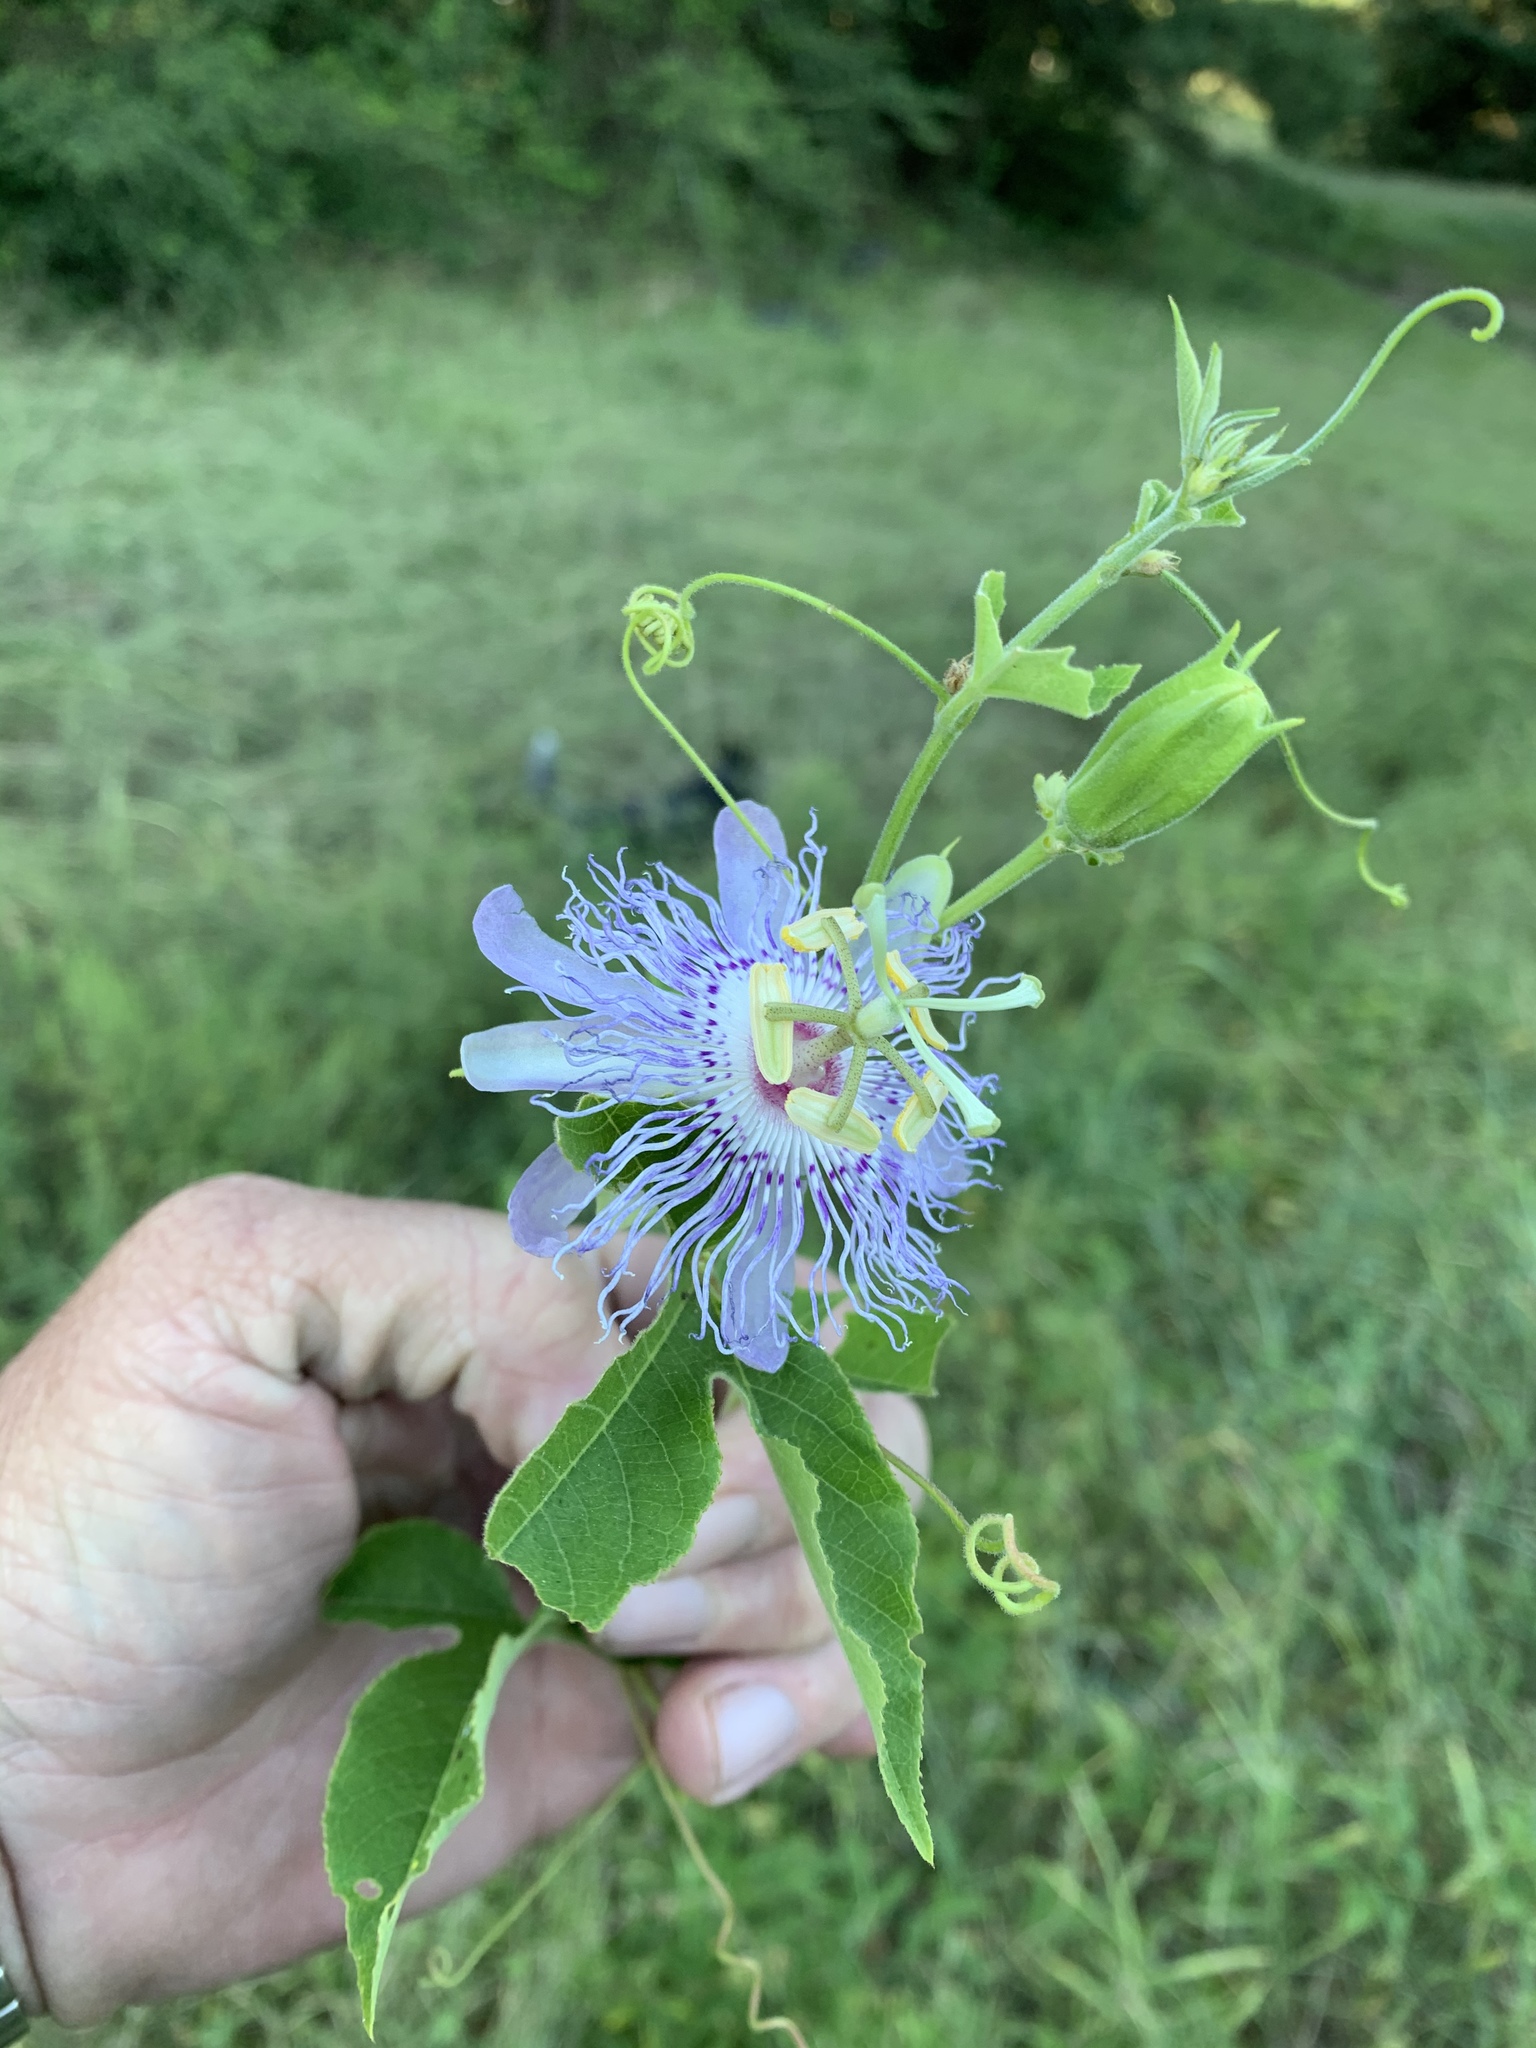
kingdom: Plantae
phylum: Tracheophyta
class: Magnoliopsida
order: Malpighiales
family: Passifloraceae
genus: Passiflora
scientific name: Passiflora incarnata
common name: Apricot-vine
